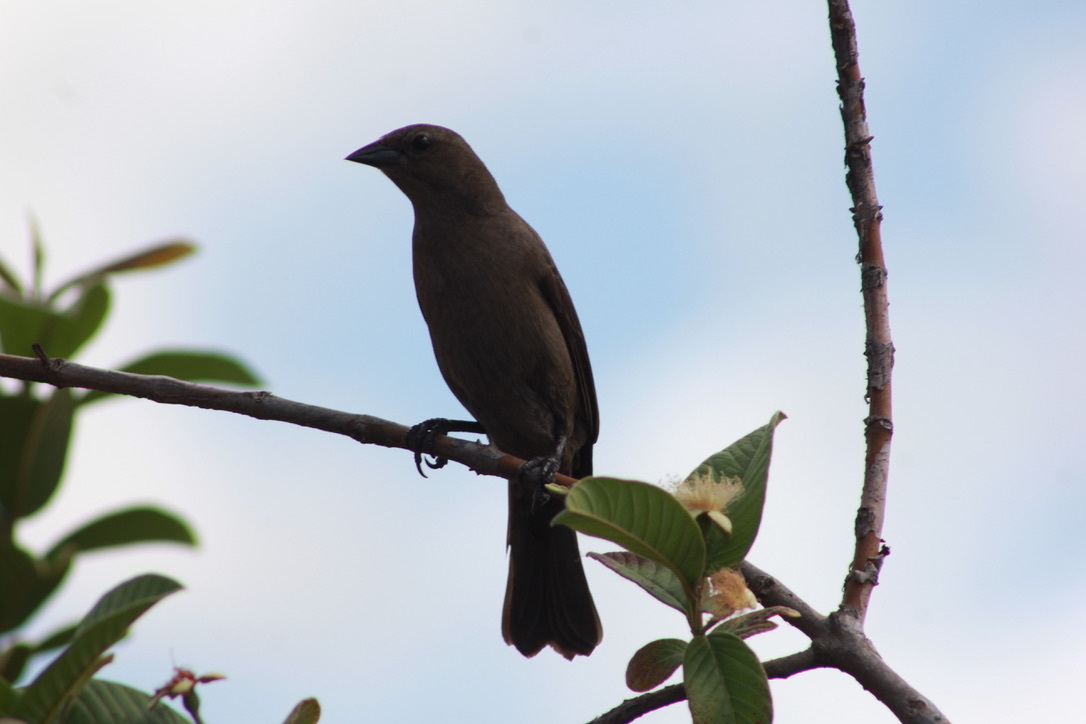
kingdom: Animalia
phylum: Chordata
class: Aves
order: Passeriformes
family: Icteridae
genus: Molothrus
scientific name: Molothrus bonariensis
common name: Shiny cowbird
